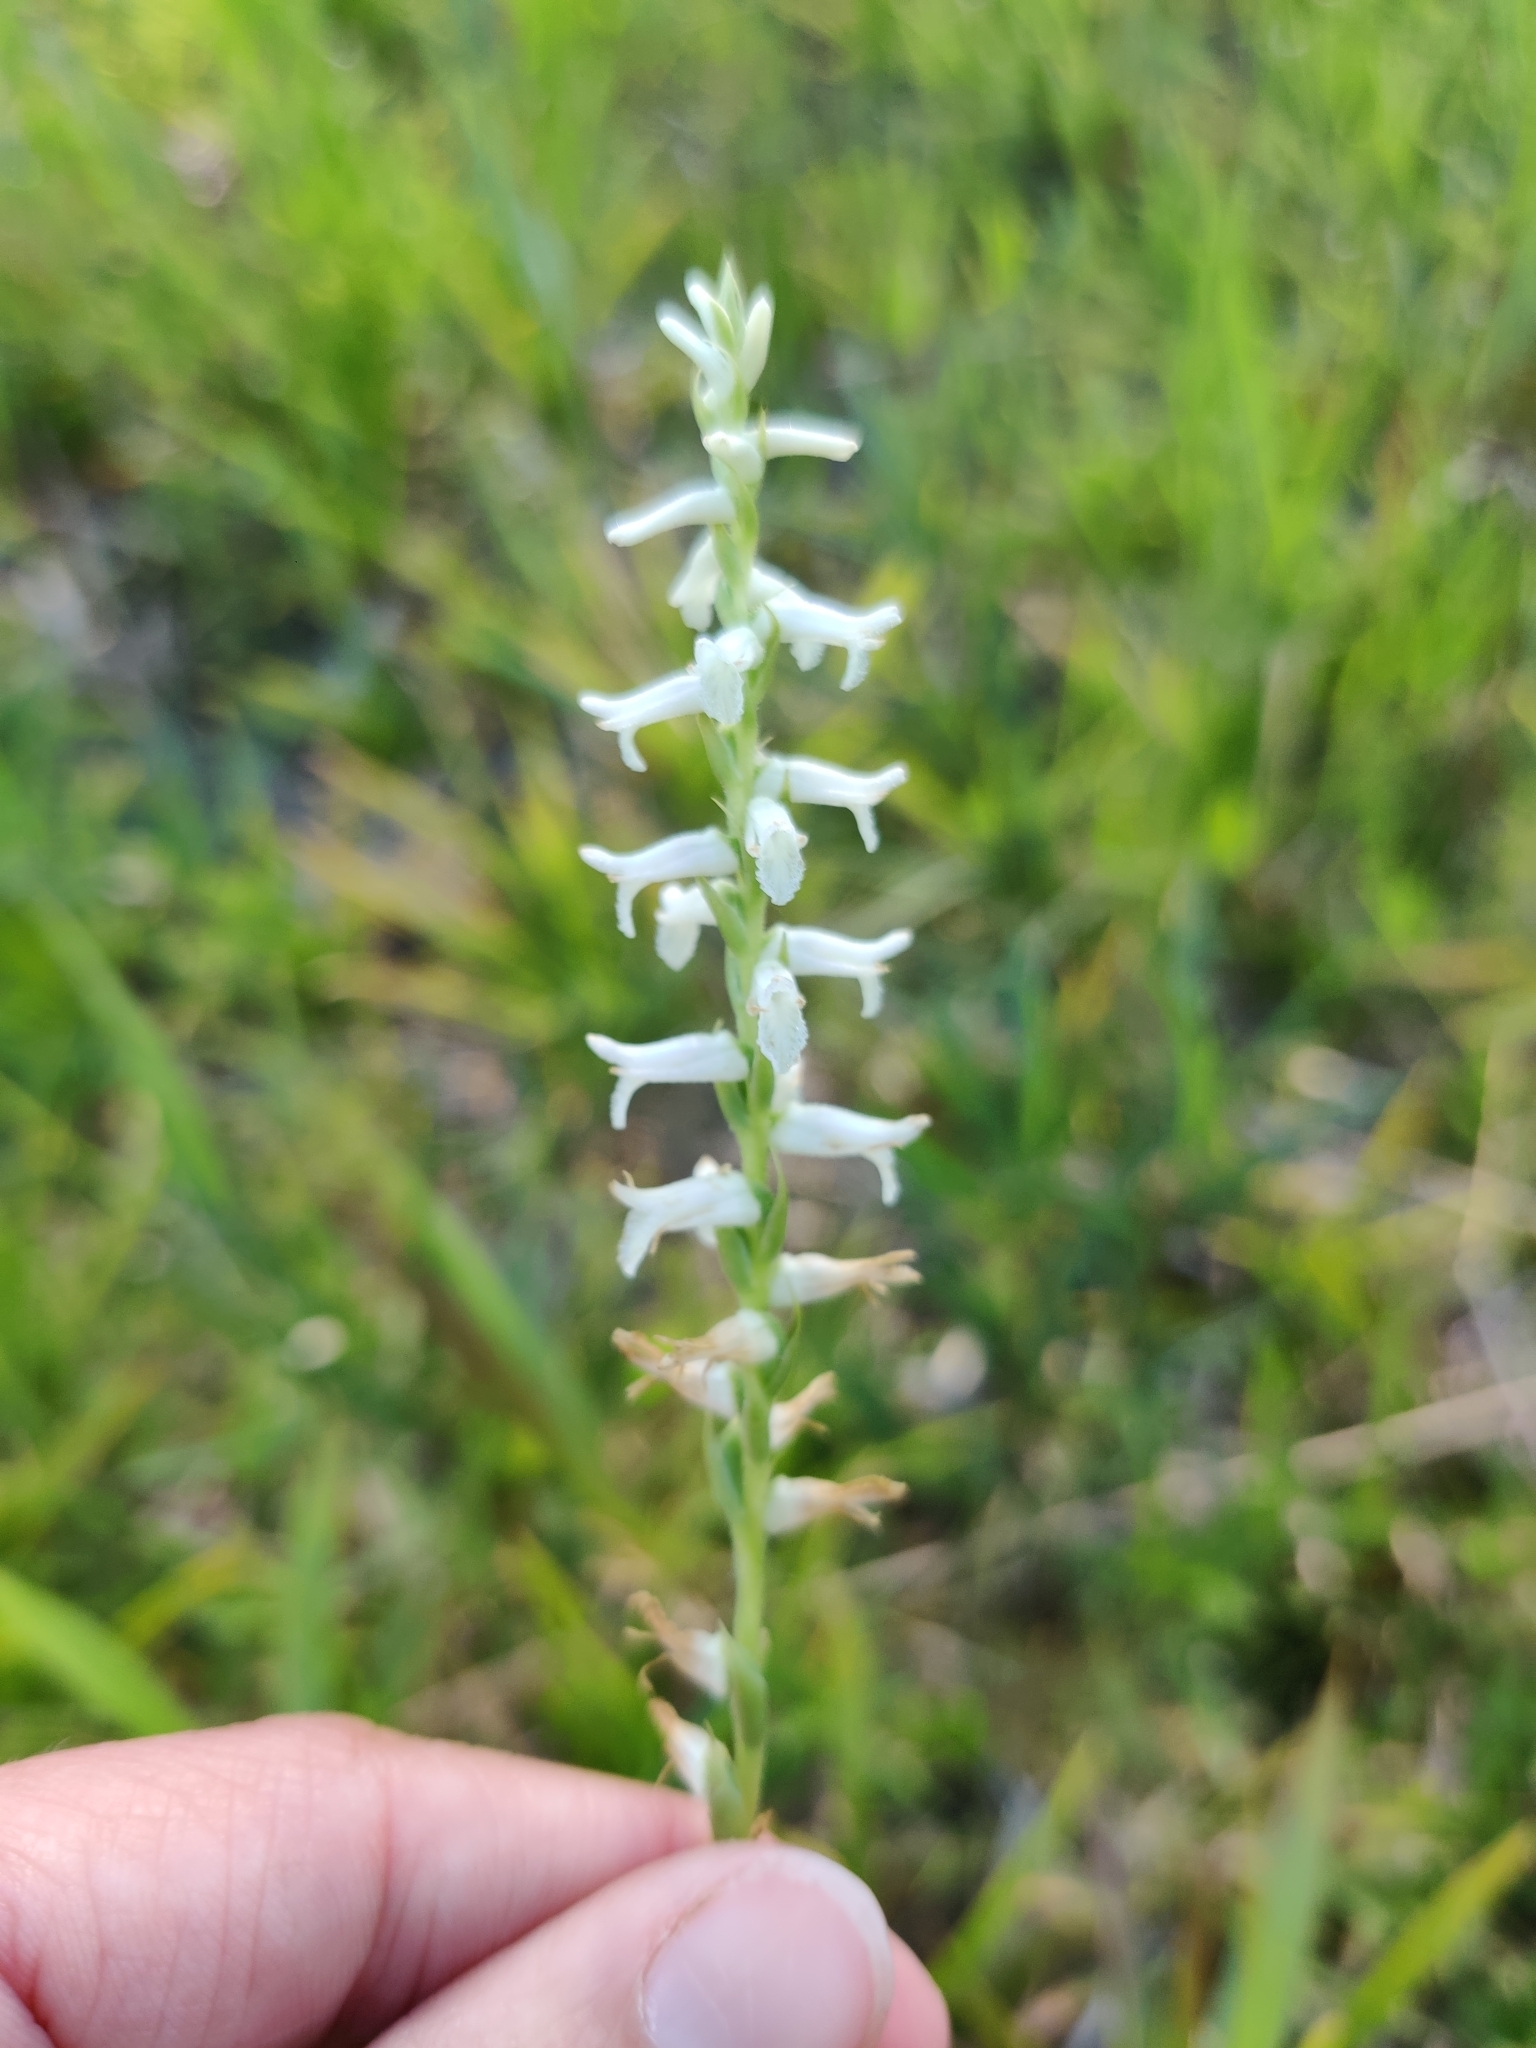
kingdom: Plantae
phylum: Tracheophyta
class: Liliopsida
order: Asparagales
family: Orchidaceae
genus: Spiranthes
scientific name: Spiranthes praecox
